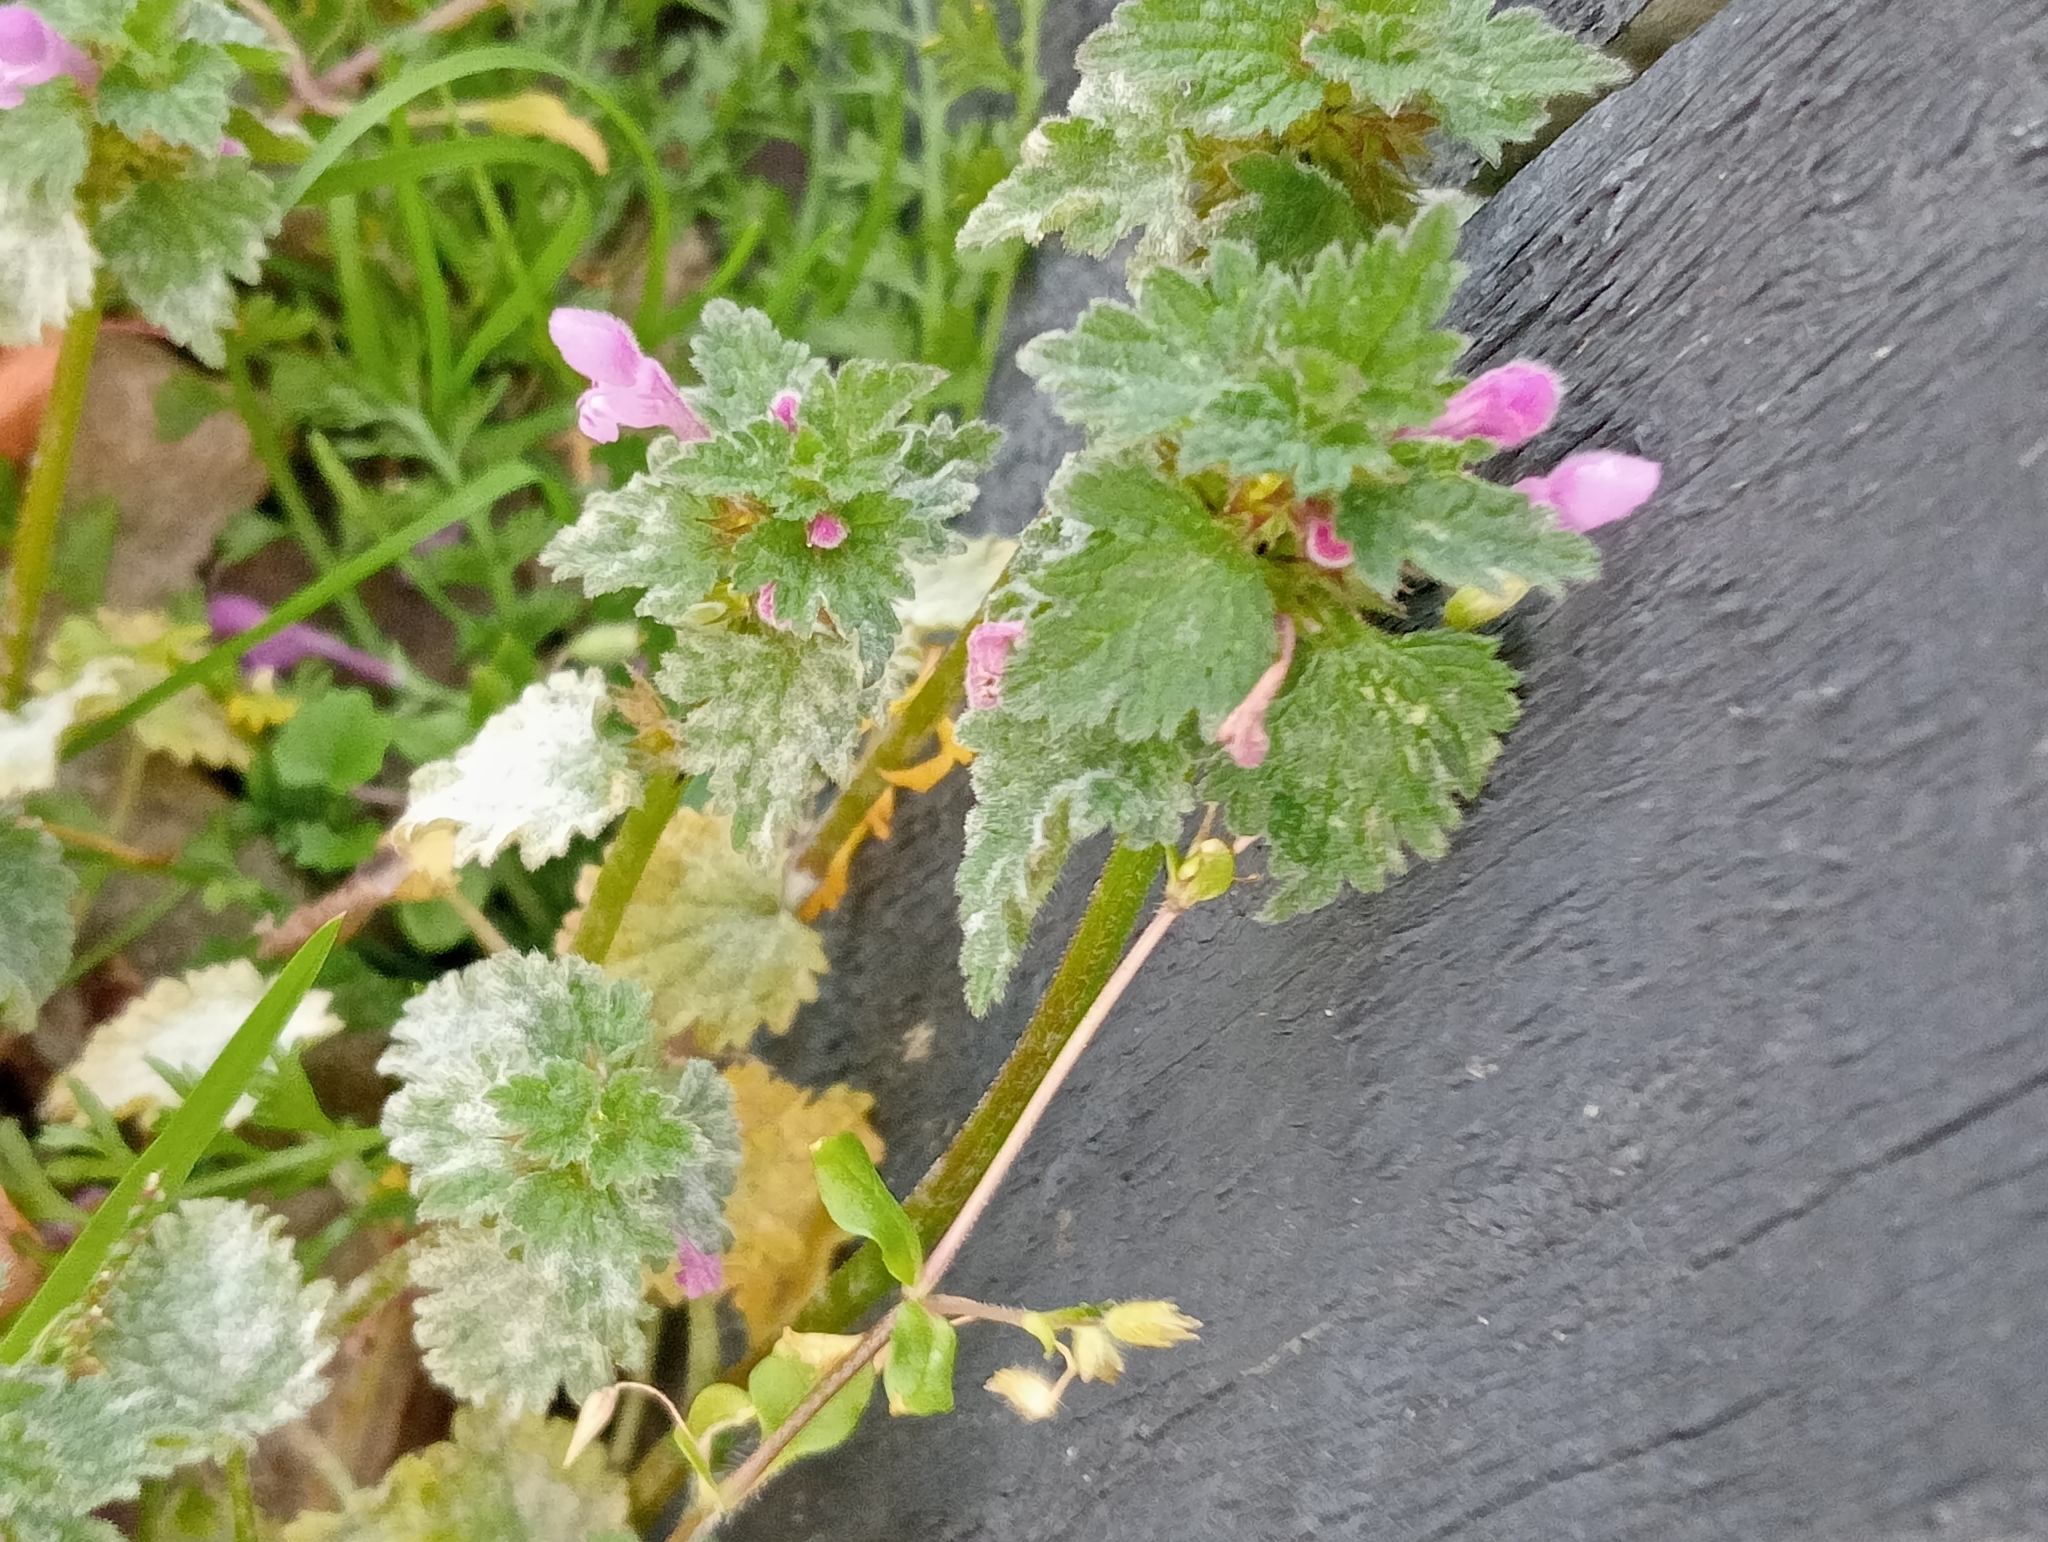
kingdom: Plantae
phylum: Tracheophyta
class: Magnoliopsida
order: Lamiales
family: Lamiaceae
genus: Lamium
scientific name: Lamium hybridum
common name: Cut-leaved dead-nettle
